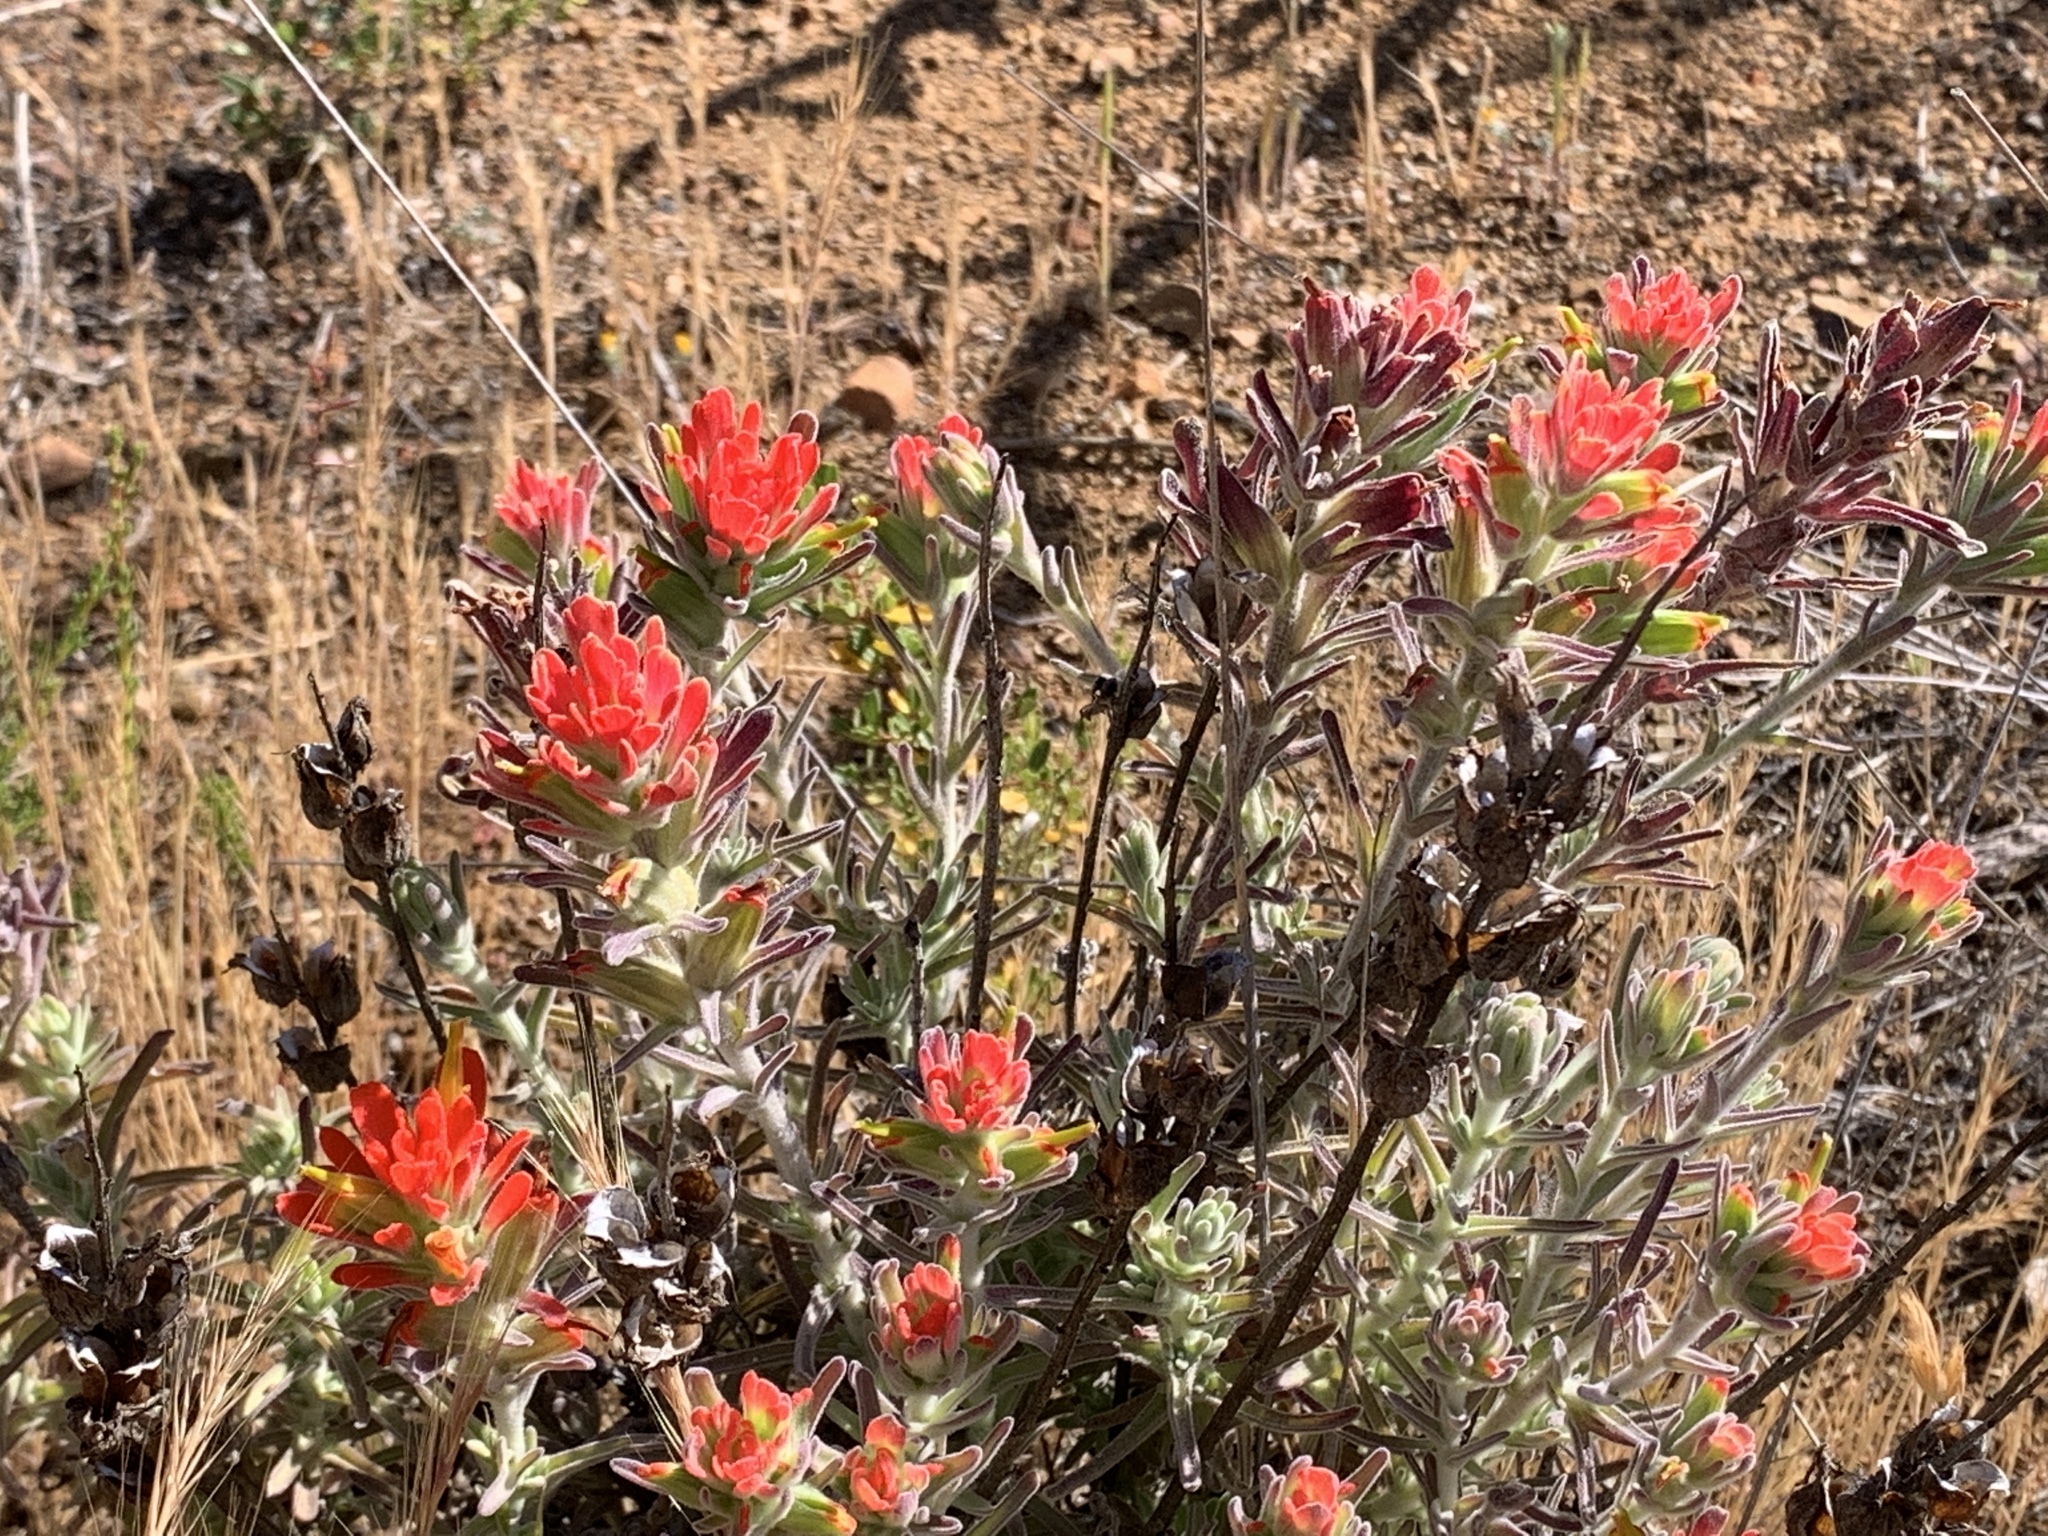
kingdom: Plantae
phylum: Tracheophyta
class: Magnoliopsida
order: Lamiales
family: Orobanchaceae
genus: Castilleja
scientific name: Castilleja foliolosa
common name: Woolly indian paintbrush
